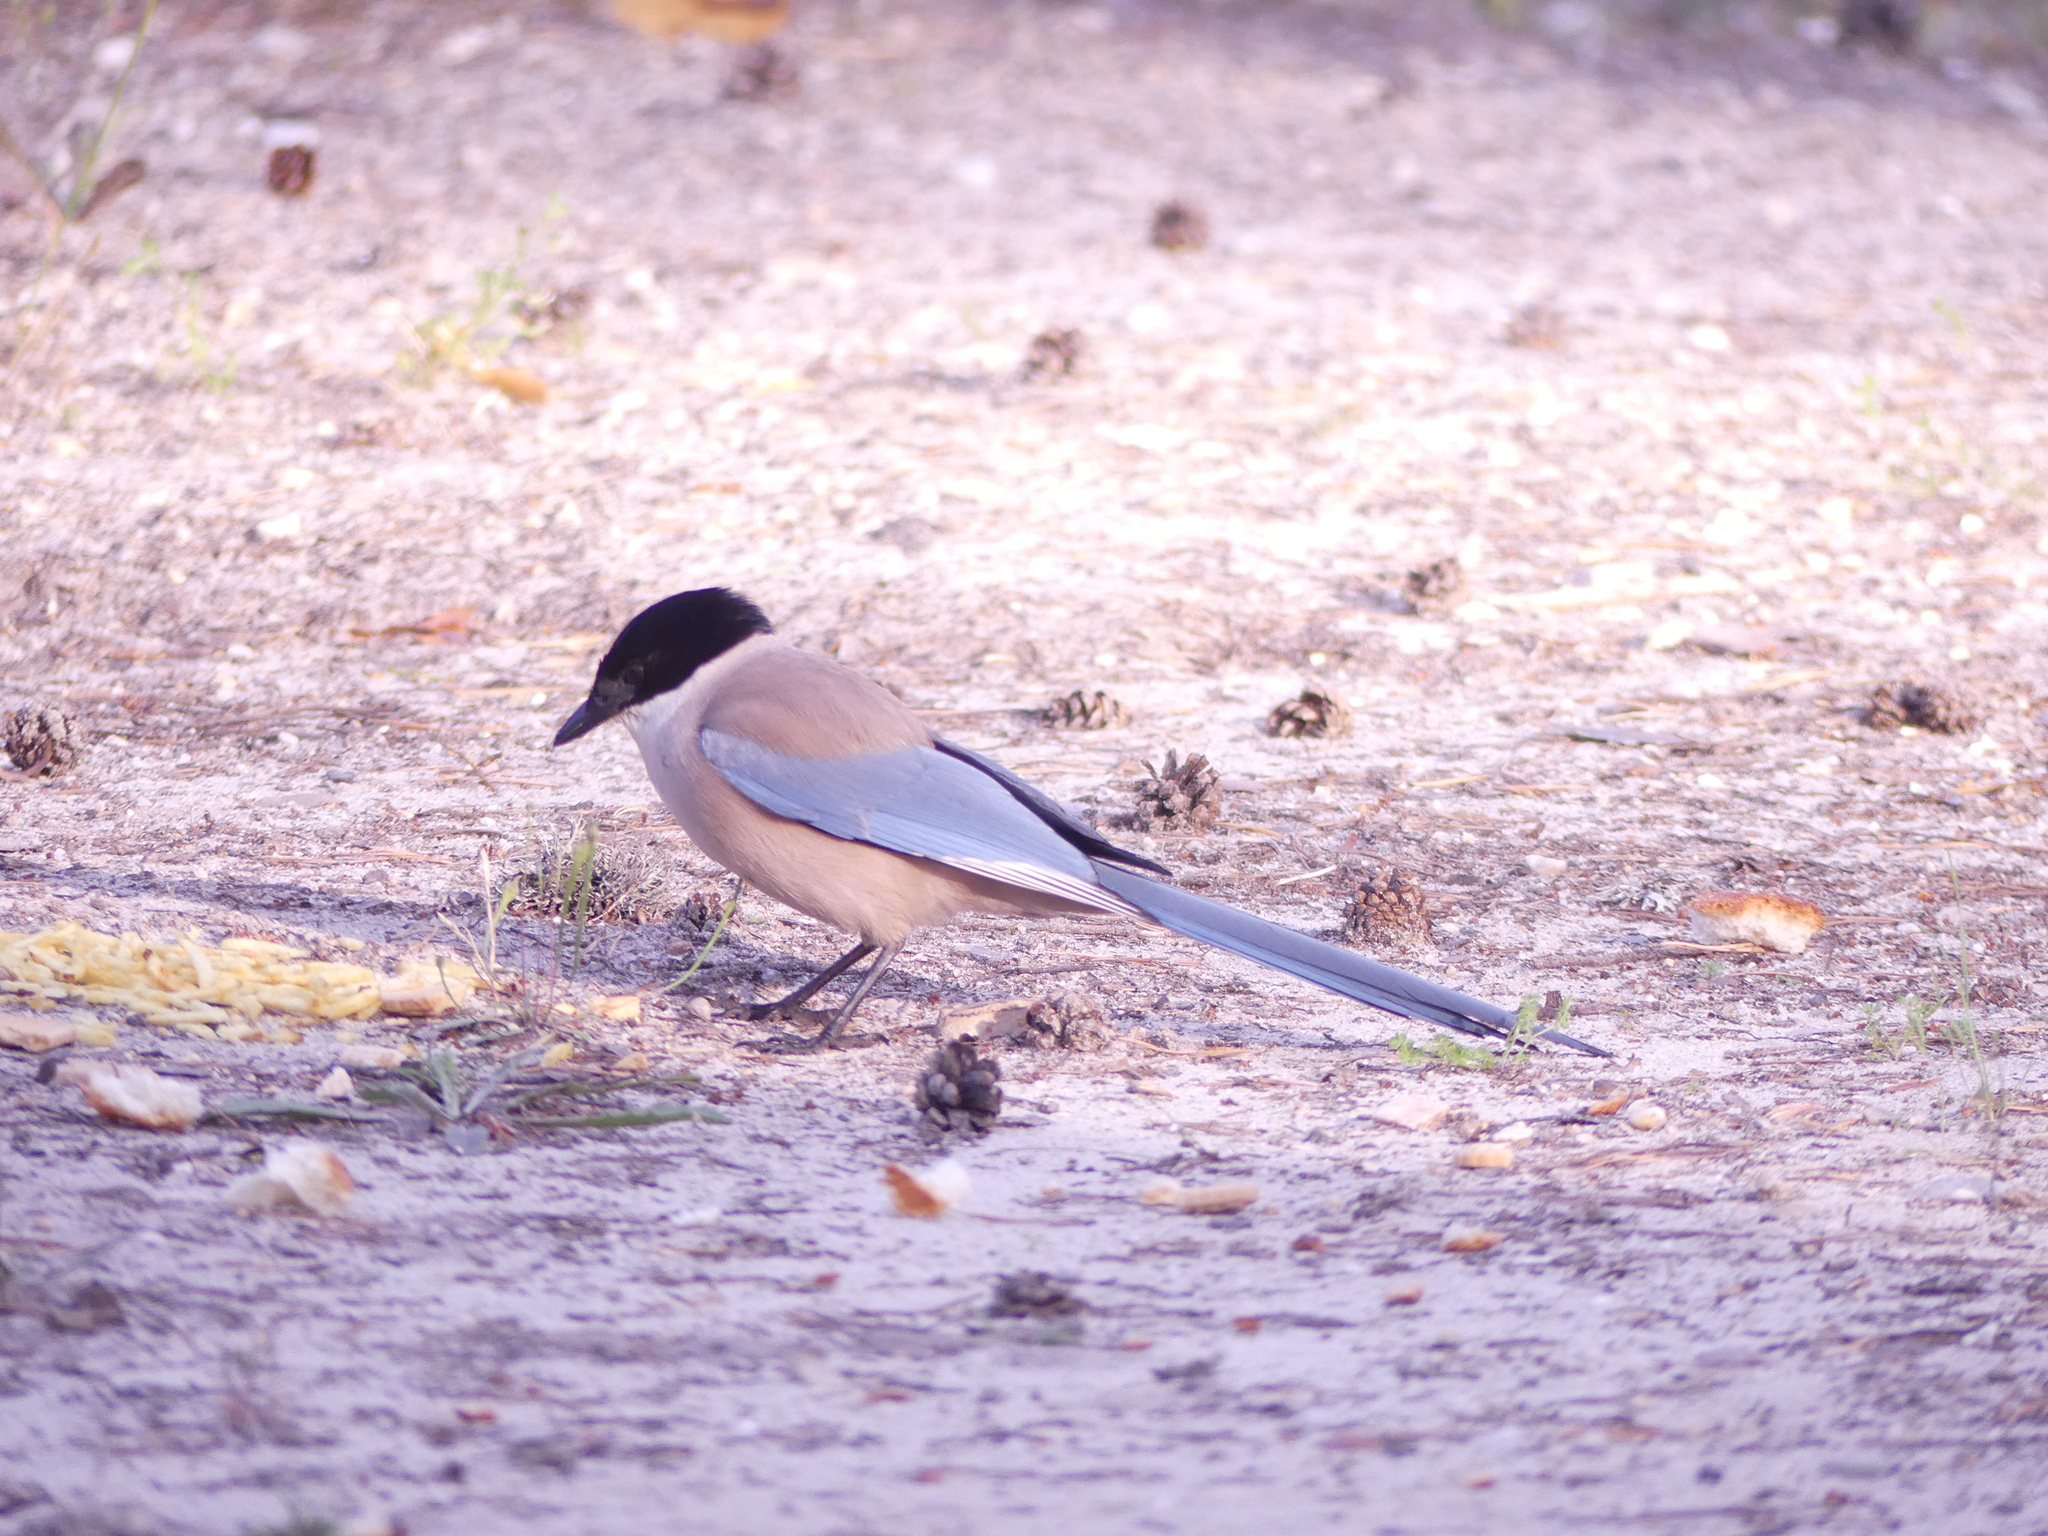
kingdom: Animalia
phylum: Chordata
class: Aves
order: Passeriformes
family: Corvidae
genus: Cyanopica
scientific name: Cyanopica cooki
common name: Iberian magpie
